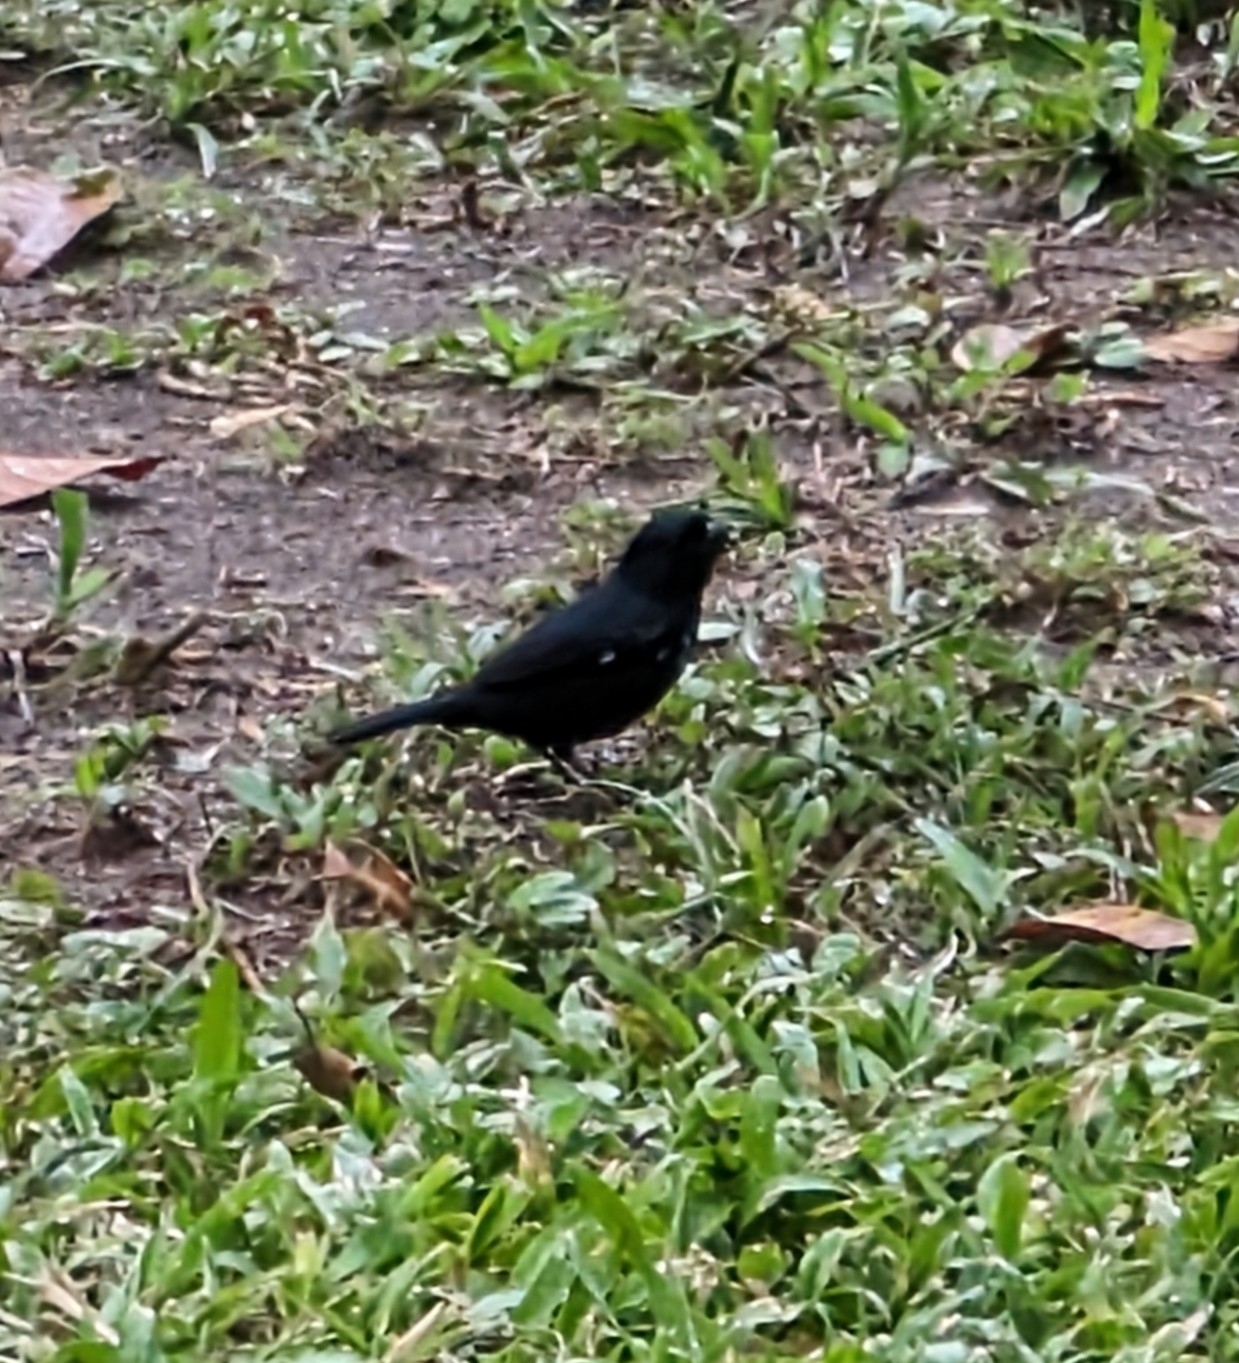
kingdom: Animalia
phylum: Chordata
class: Aves
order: Passeriformes
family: Thraupidae
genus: Sporophila
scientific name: Sporophila corvina
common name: Variable seedeater
